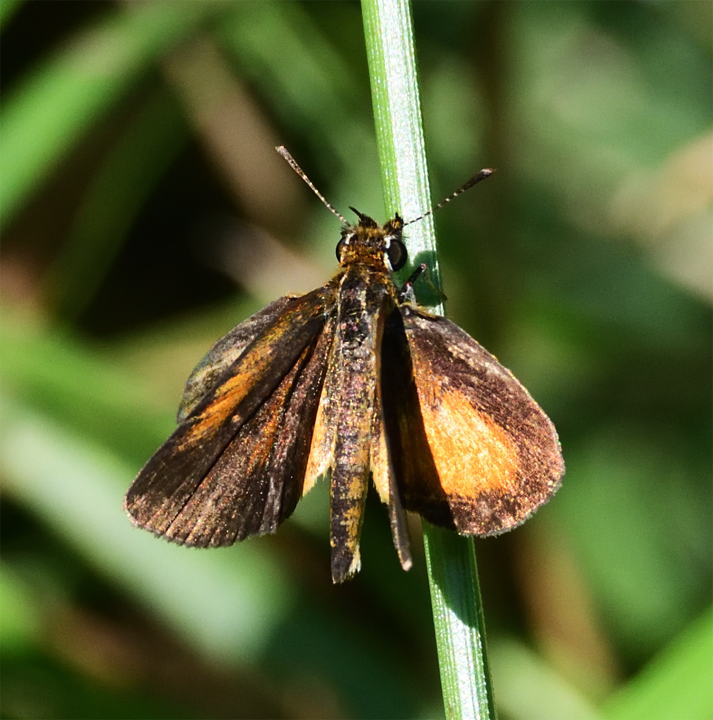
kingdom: Animalia
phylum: Arthropoda
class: Insecta
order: Lepidoptera
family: Hesperiidae
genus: Ancyloxypha
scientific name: Ancyloxypha numitor
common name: Least skipper
